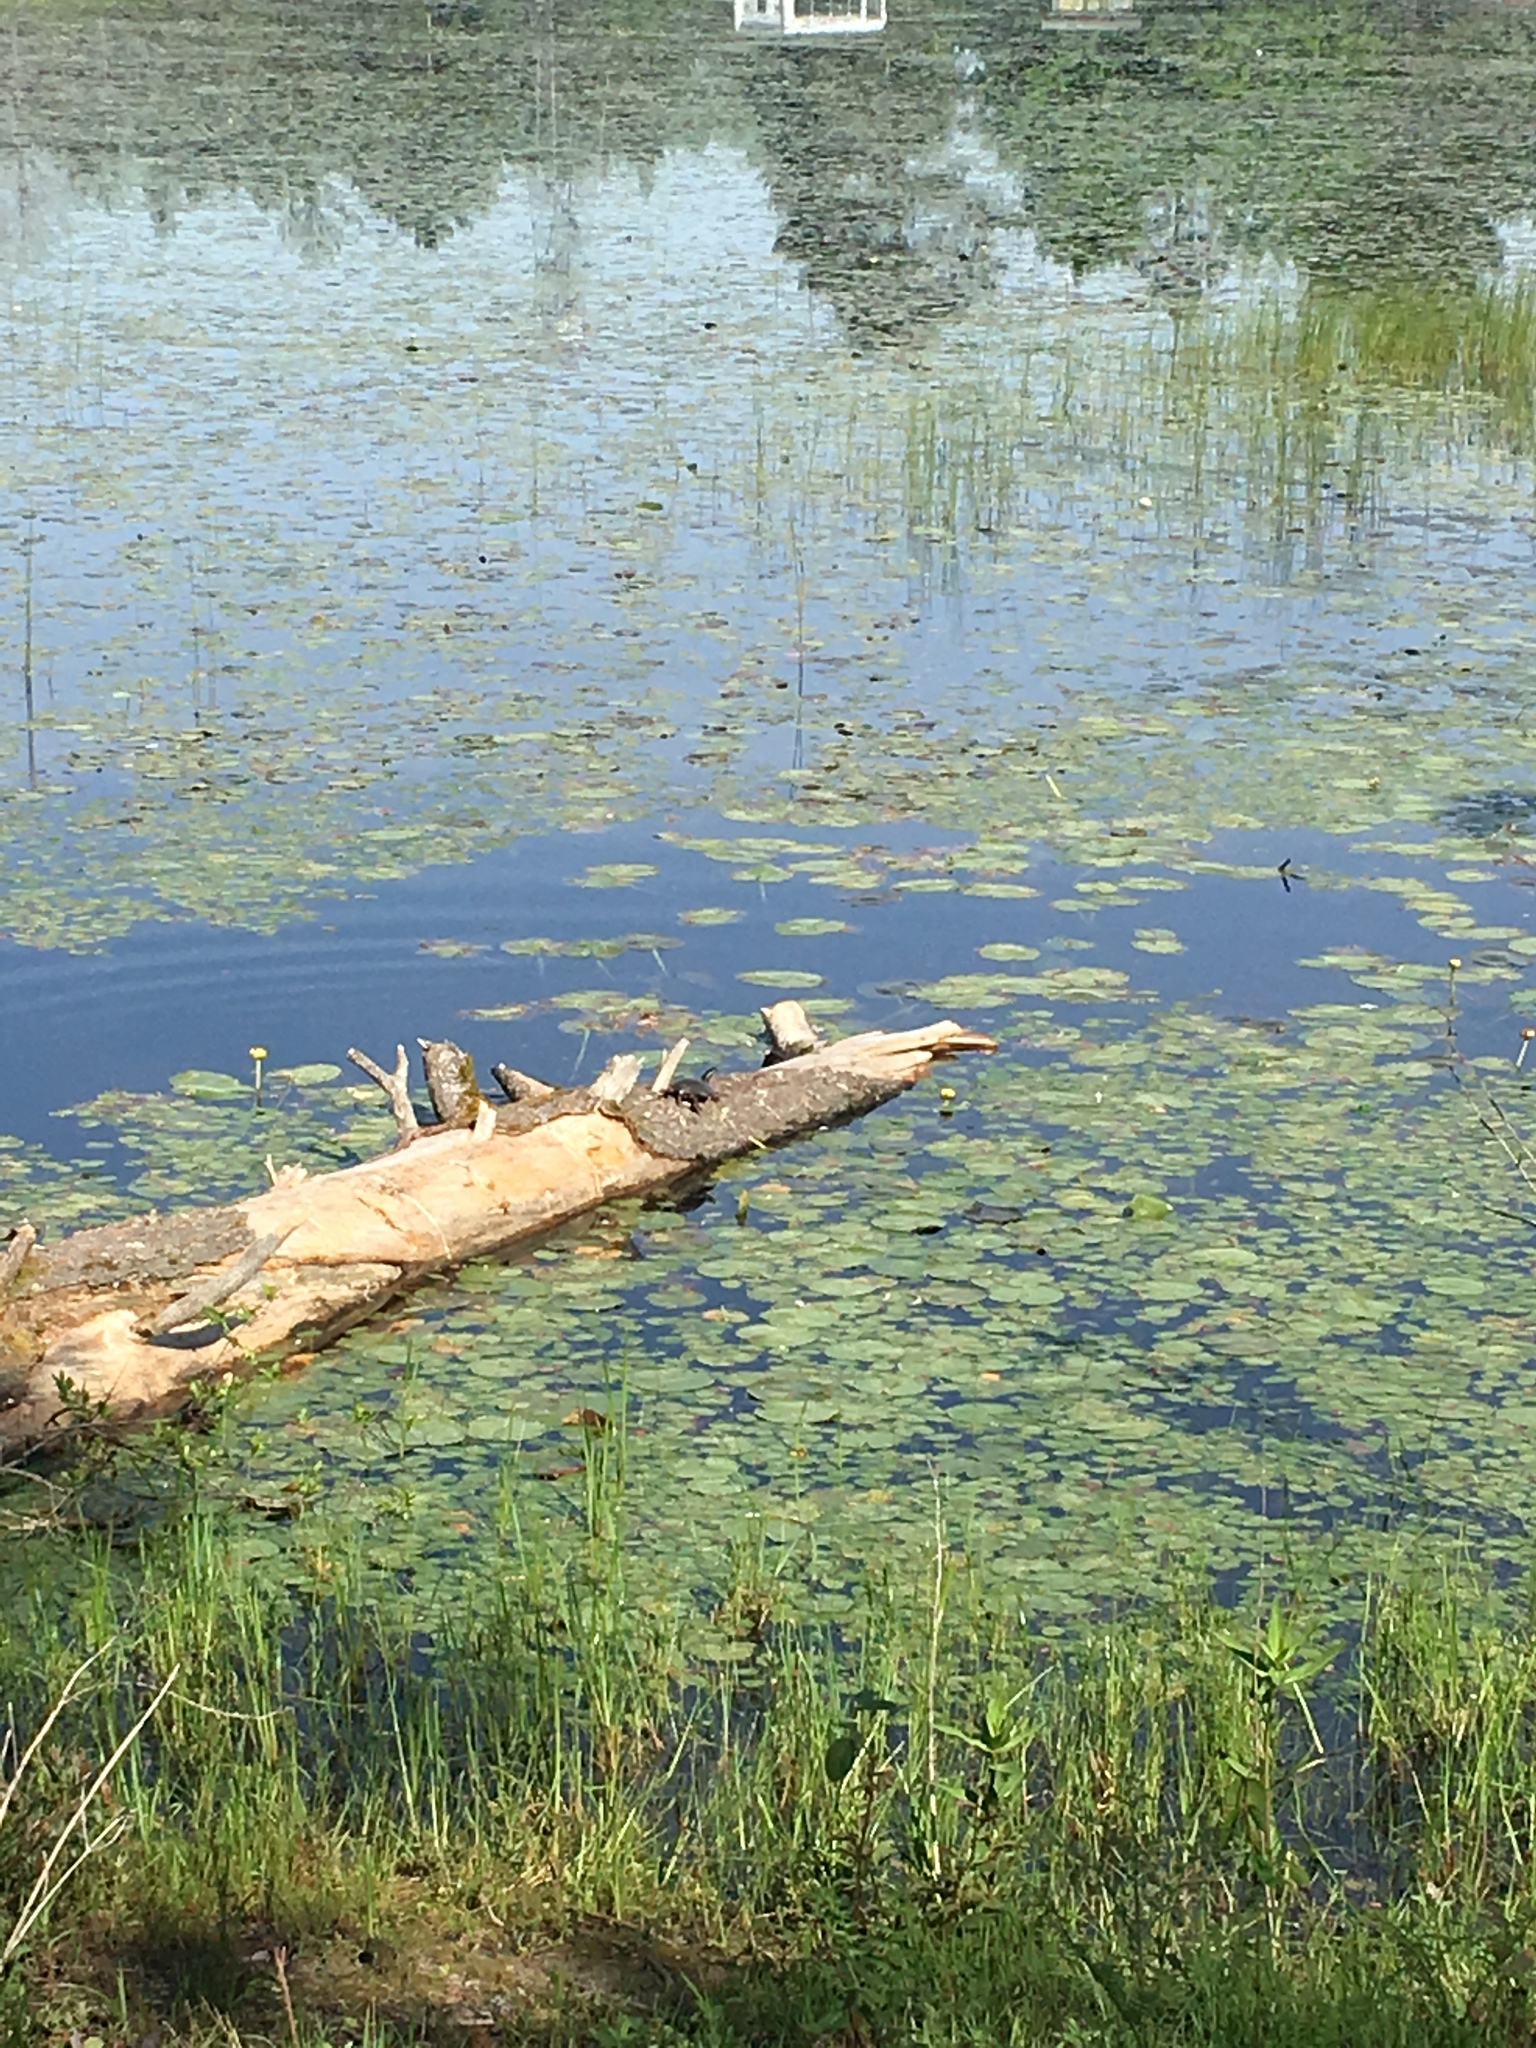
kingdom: Animalia
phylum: Chordata
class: Testudines
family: Emydidae
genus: Chrysemys
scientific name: Chrysemys picta
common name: Painted turtle
